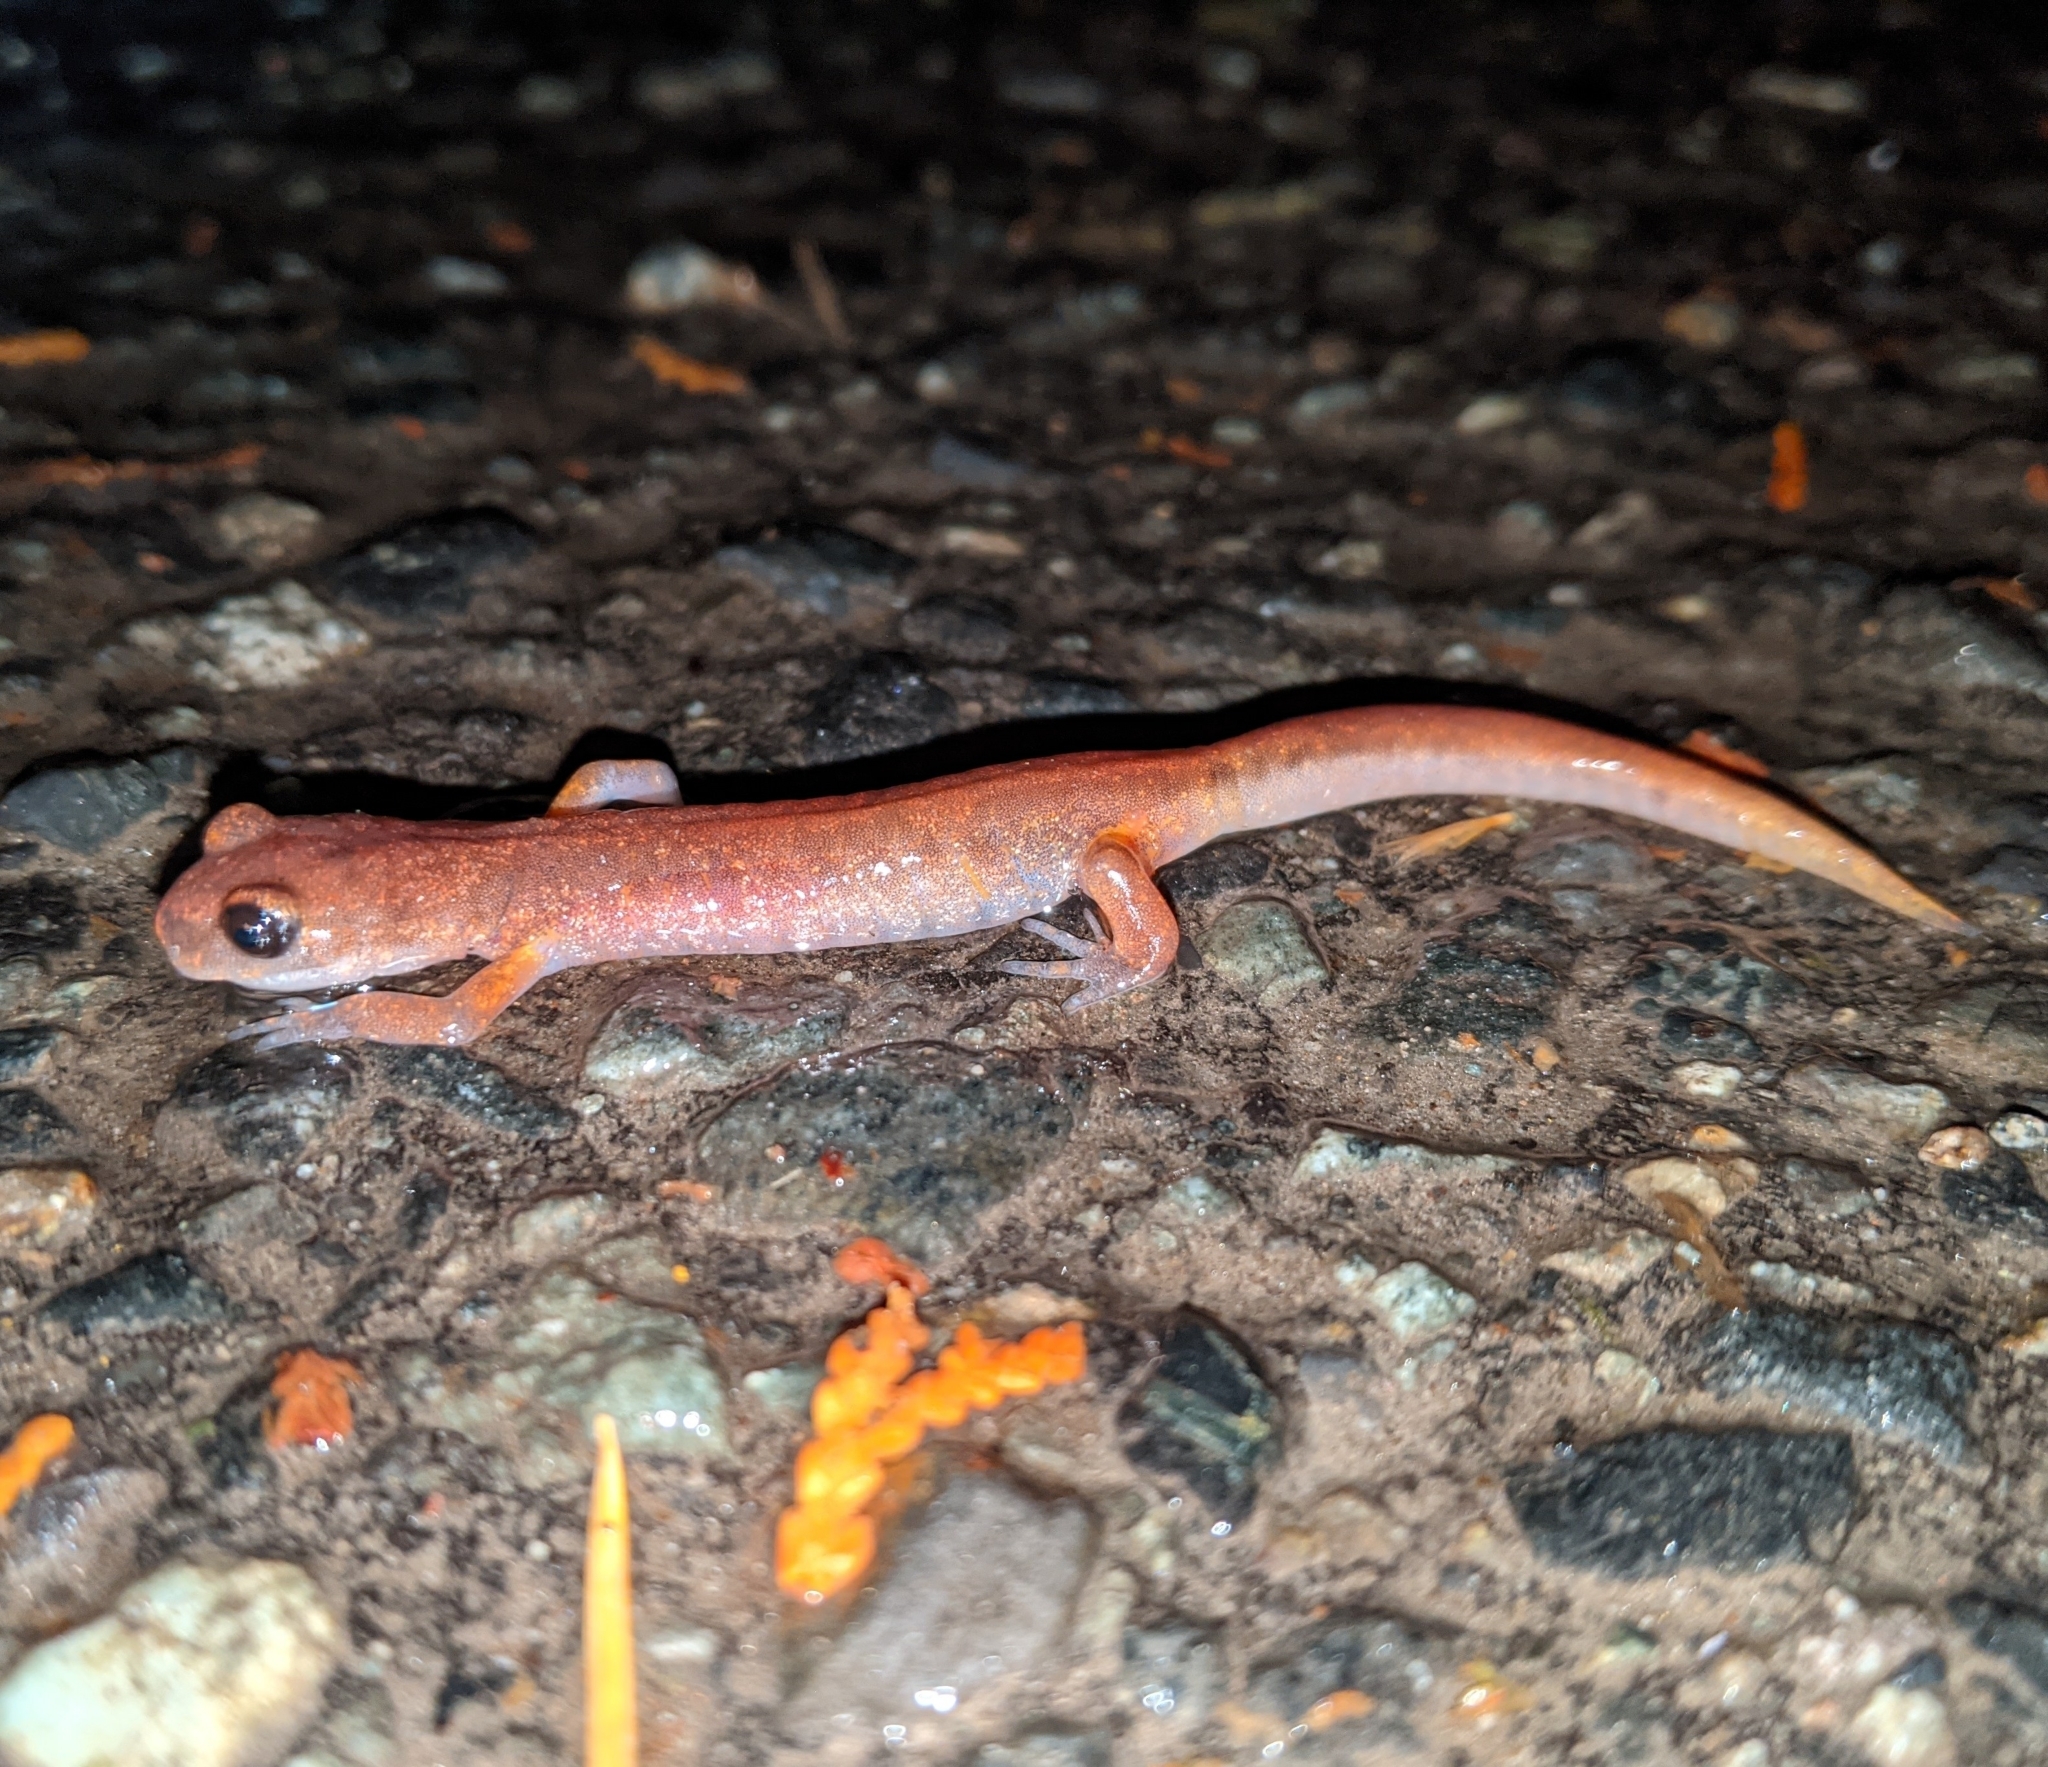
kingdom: Animalia
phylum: Chordata
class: Amphibia
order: Caudata
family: Plethodontidae
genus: Ensatina
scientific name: Ensatina eschscholtzii
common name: Ensatina
